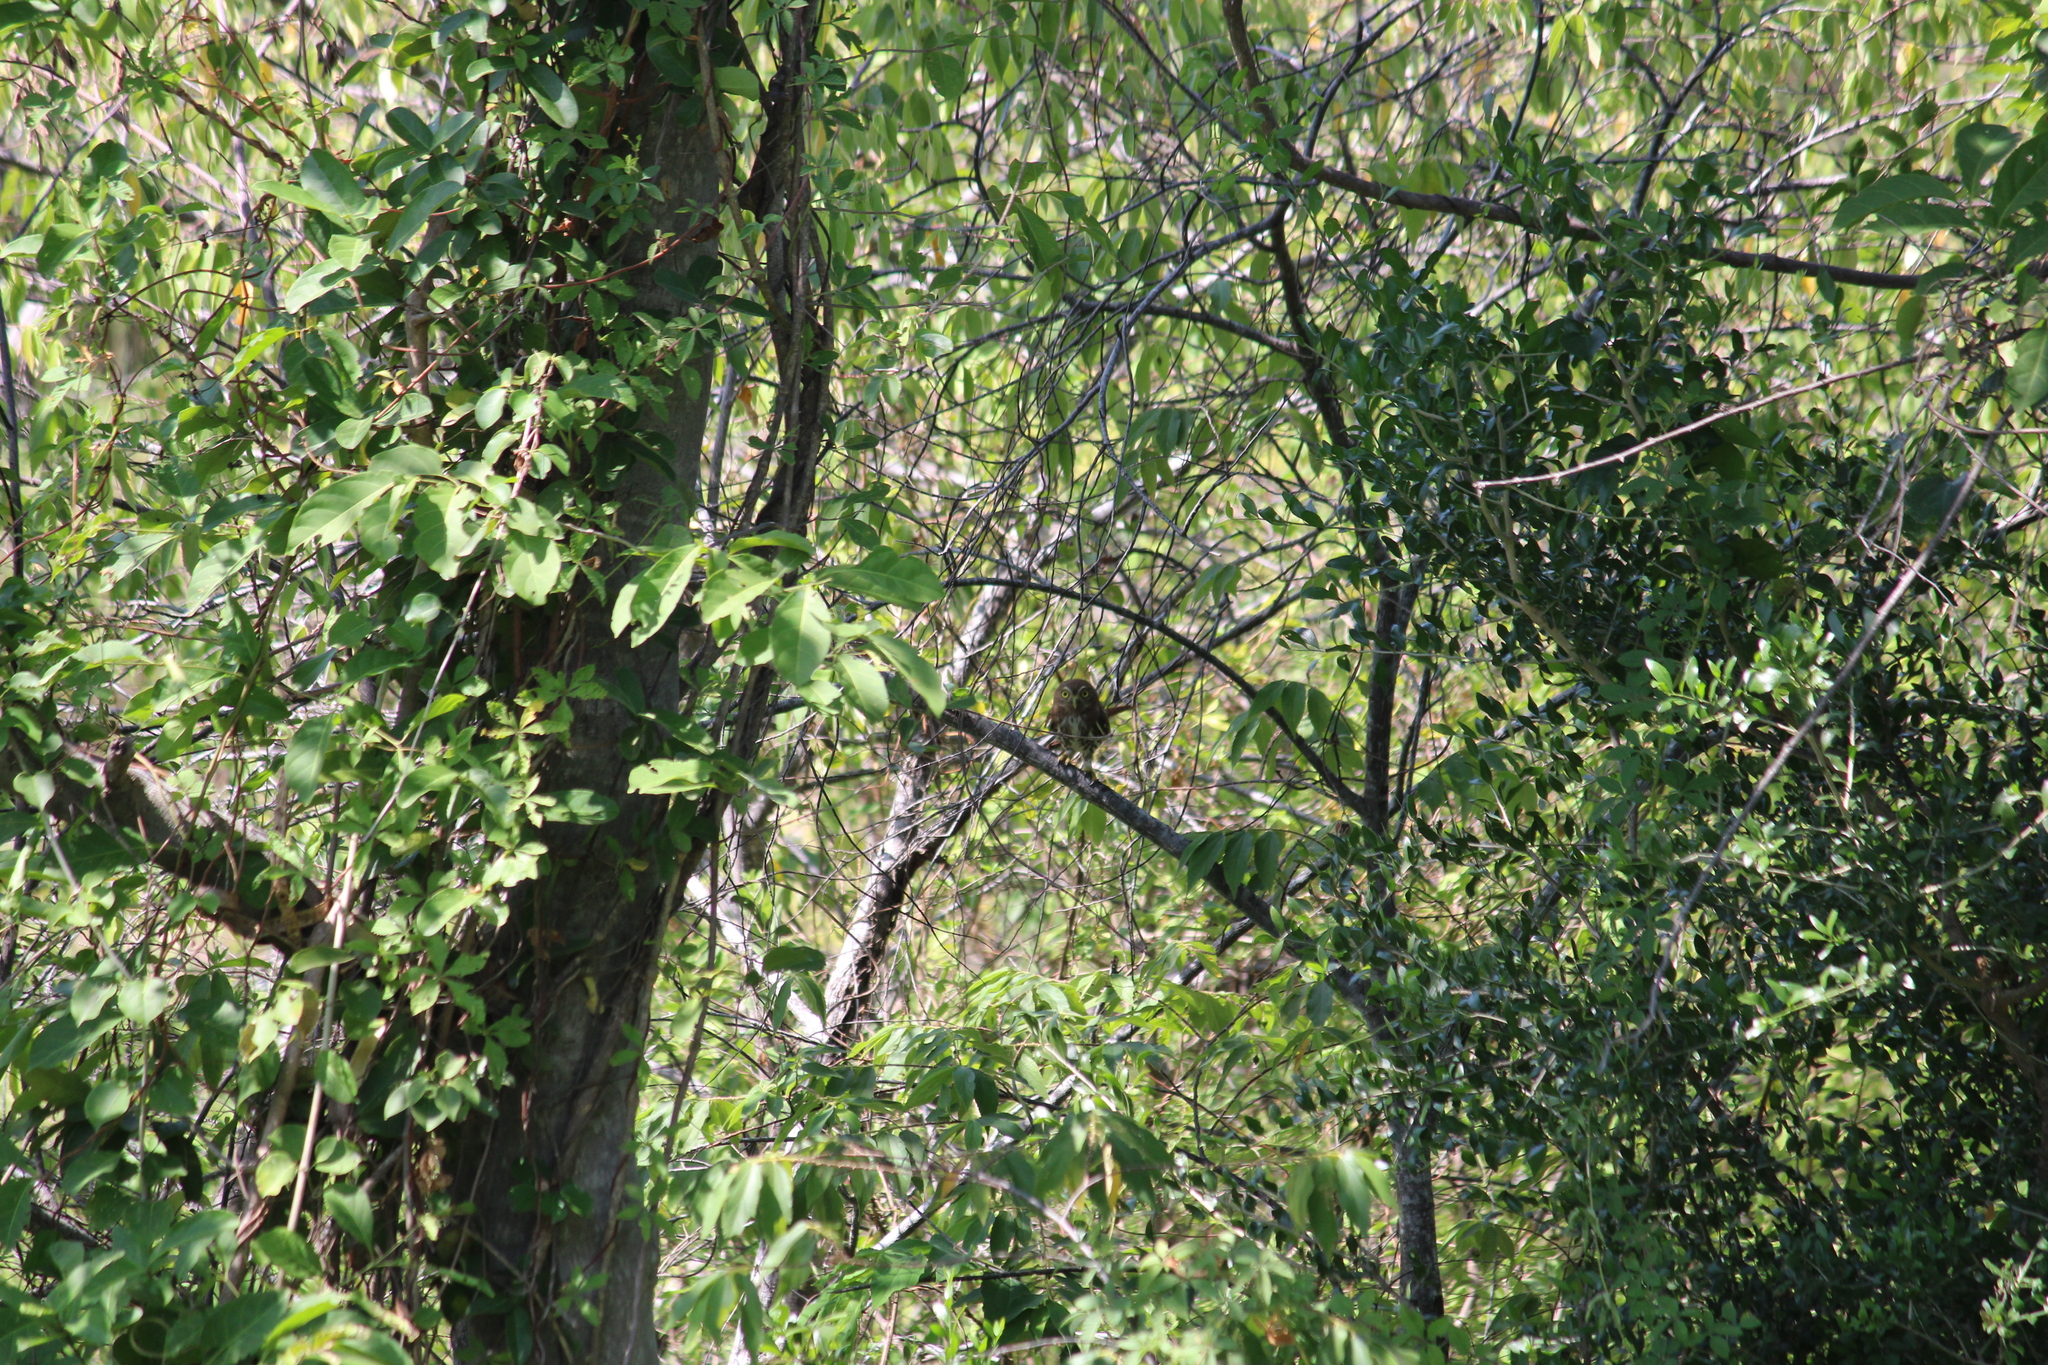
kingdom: Animalia
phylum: Chordata
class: Aves
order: Strigiformes
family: Strigidae
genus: Glaucidium
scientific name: Glaucidium brasilianum
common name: Ferruginous pygmy-owl
